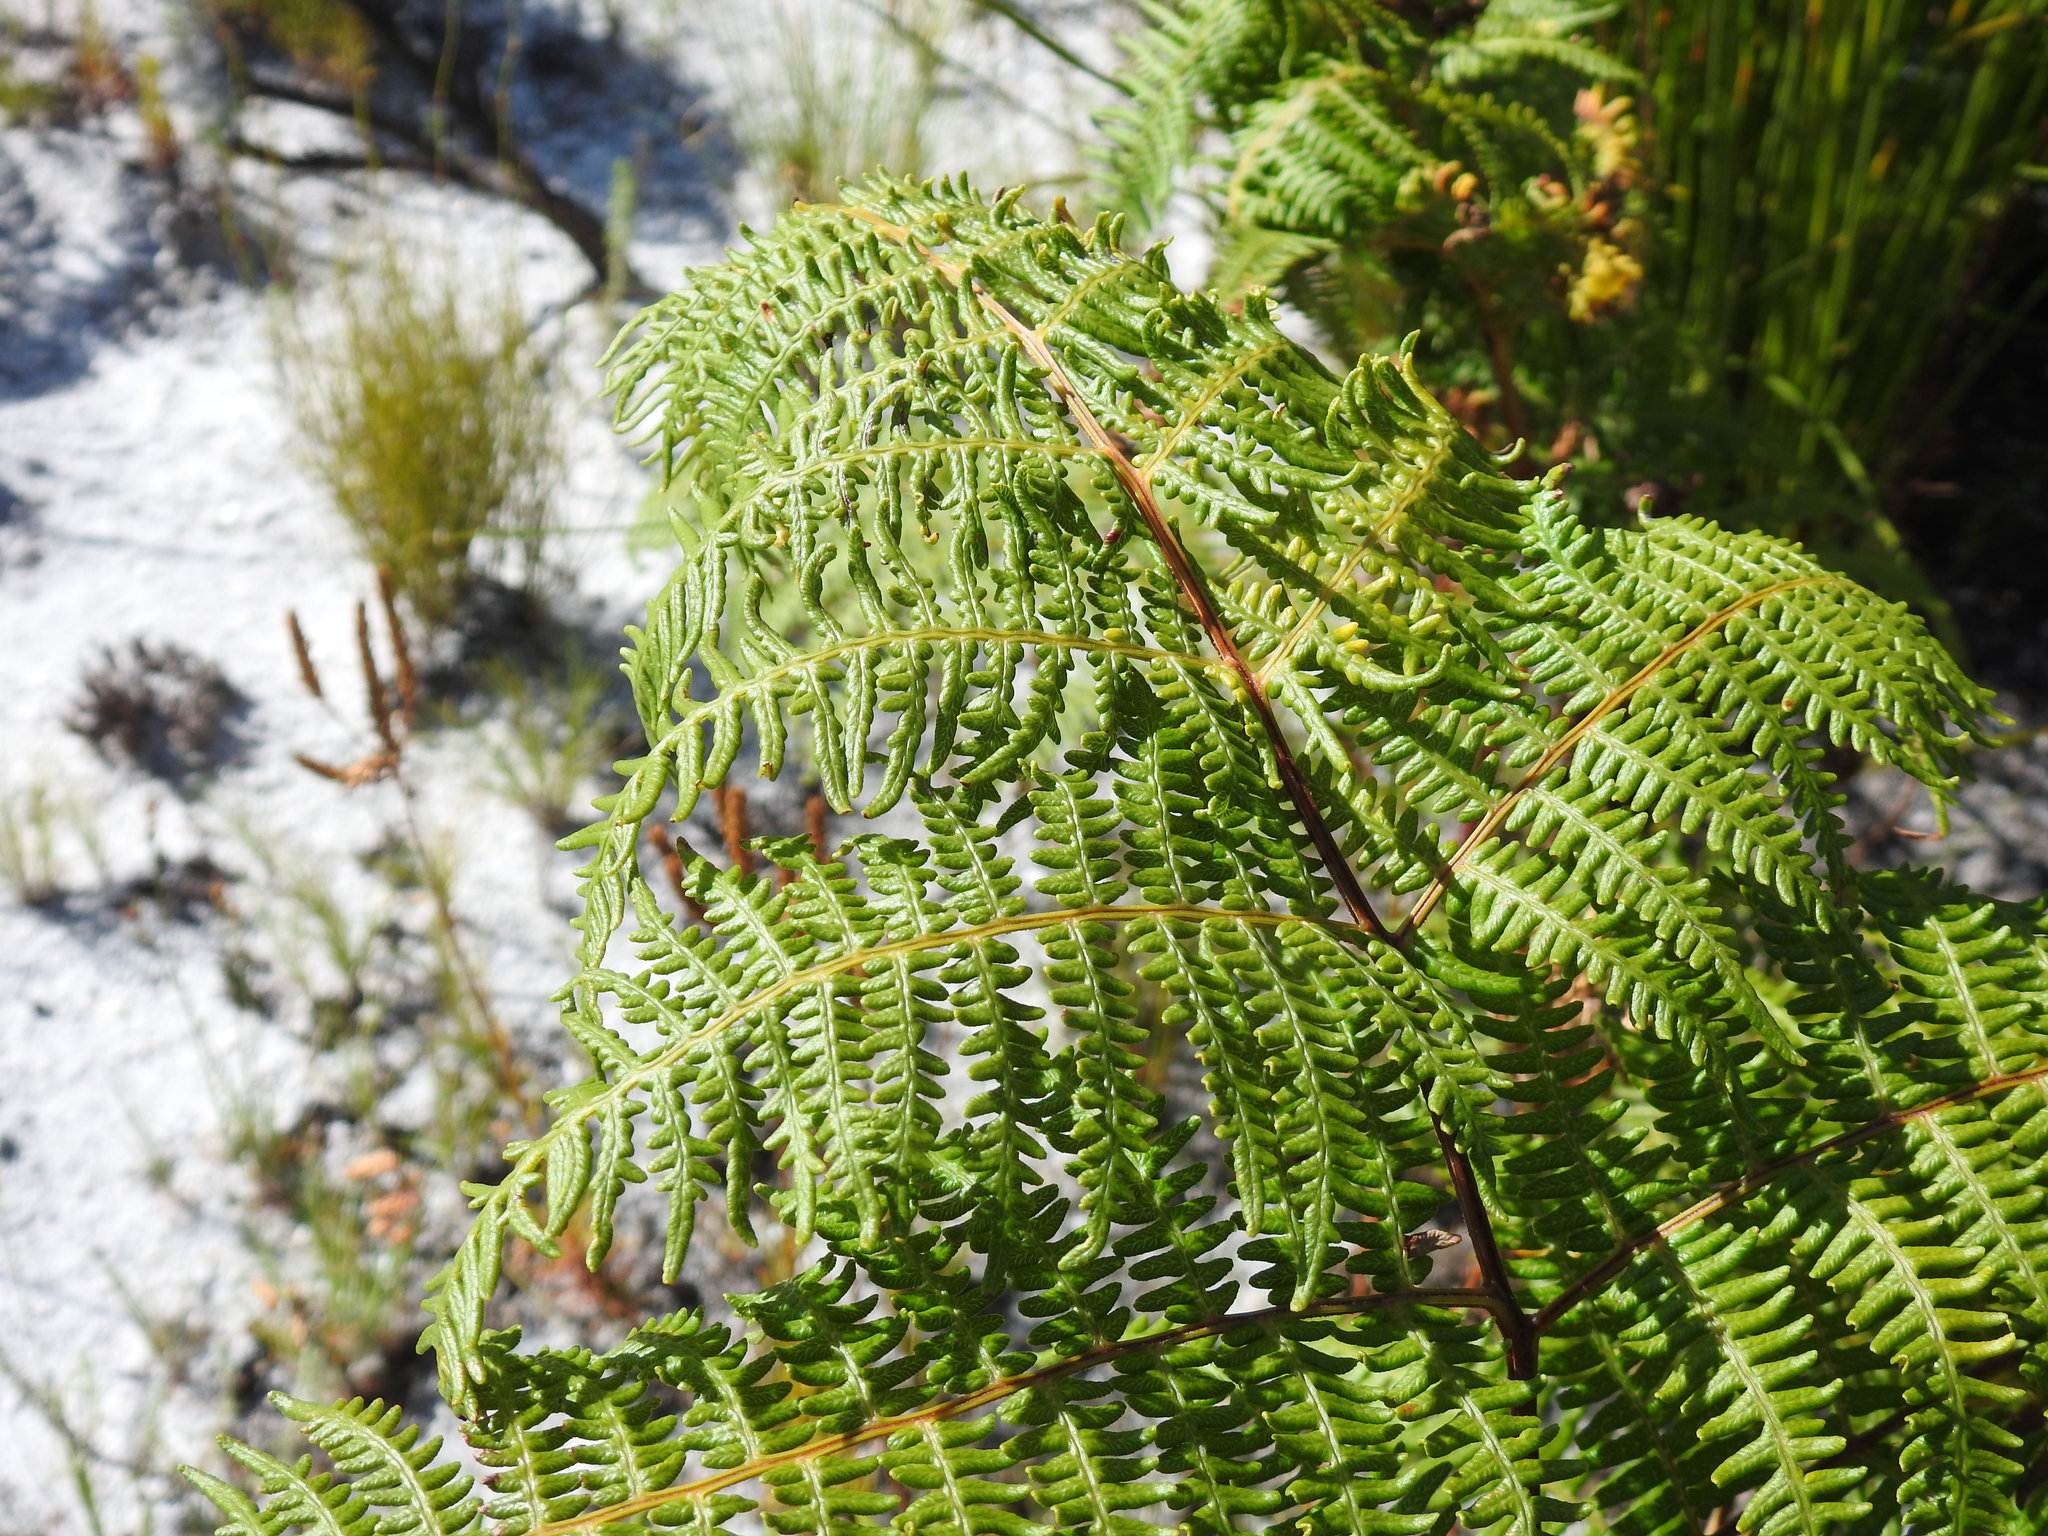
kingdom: Plantae
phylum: Tracheophyta
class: Polypodiopsida
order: Polypodiales
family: Dennstaedtiaceae
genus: Pteridium
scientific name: Pteridium aquilinum
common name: Bracken
